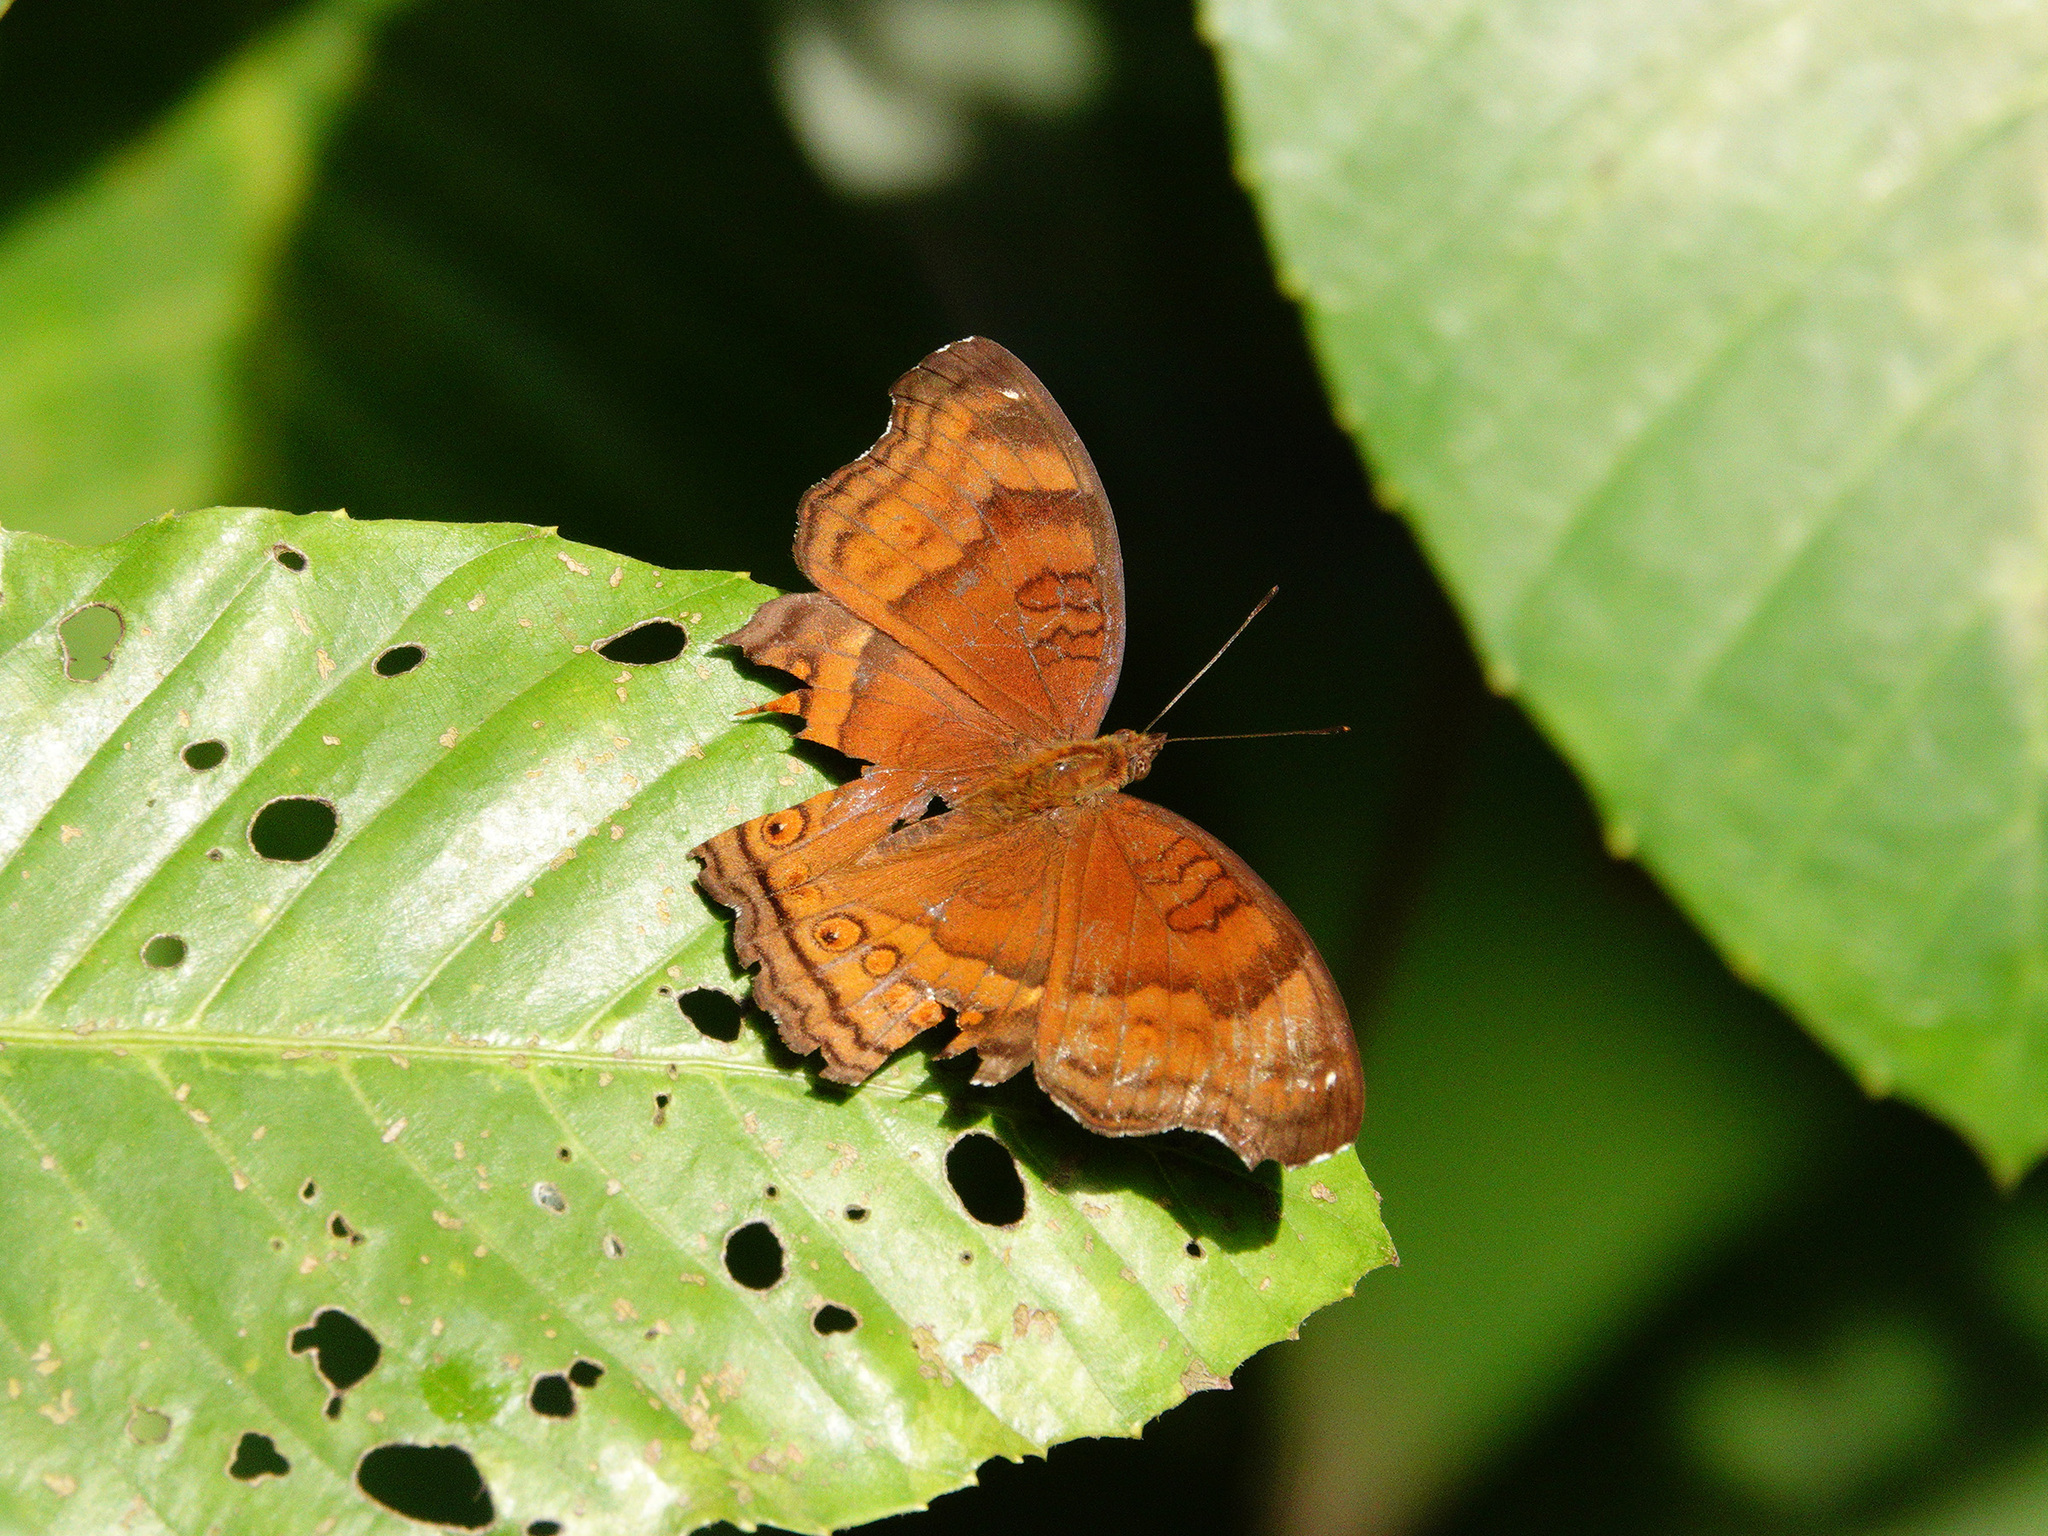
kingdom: Animalia
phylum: Arthropoda
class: Insecta
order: Lepidoptera
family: Nymphalidae
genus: Junonia
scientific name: Junonia hedonia
